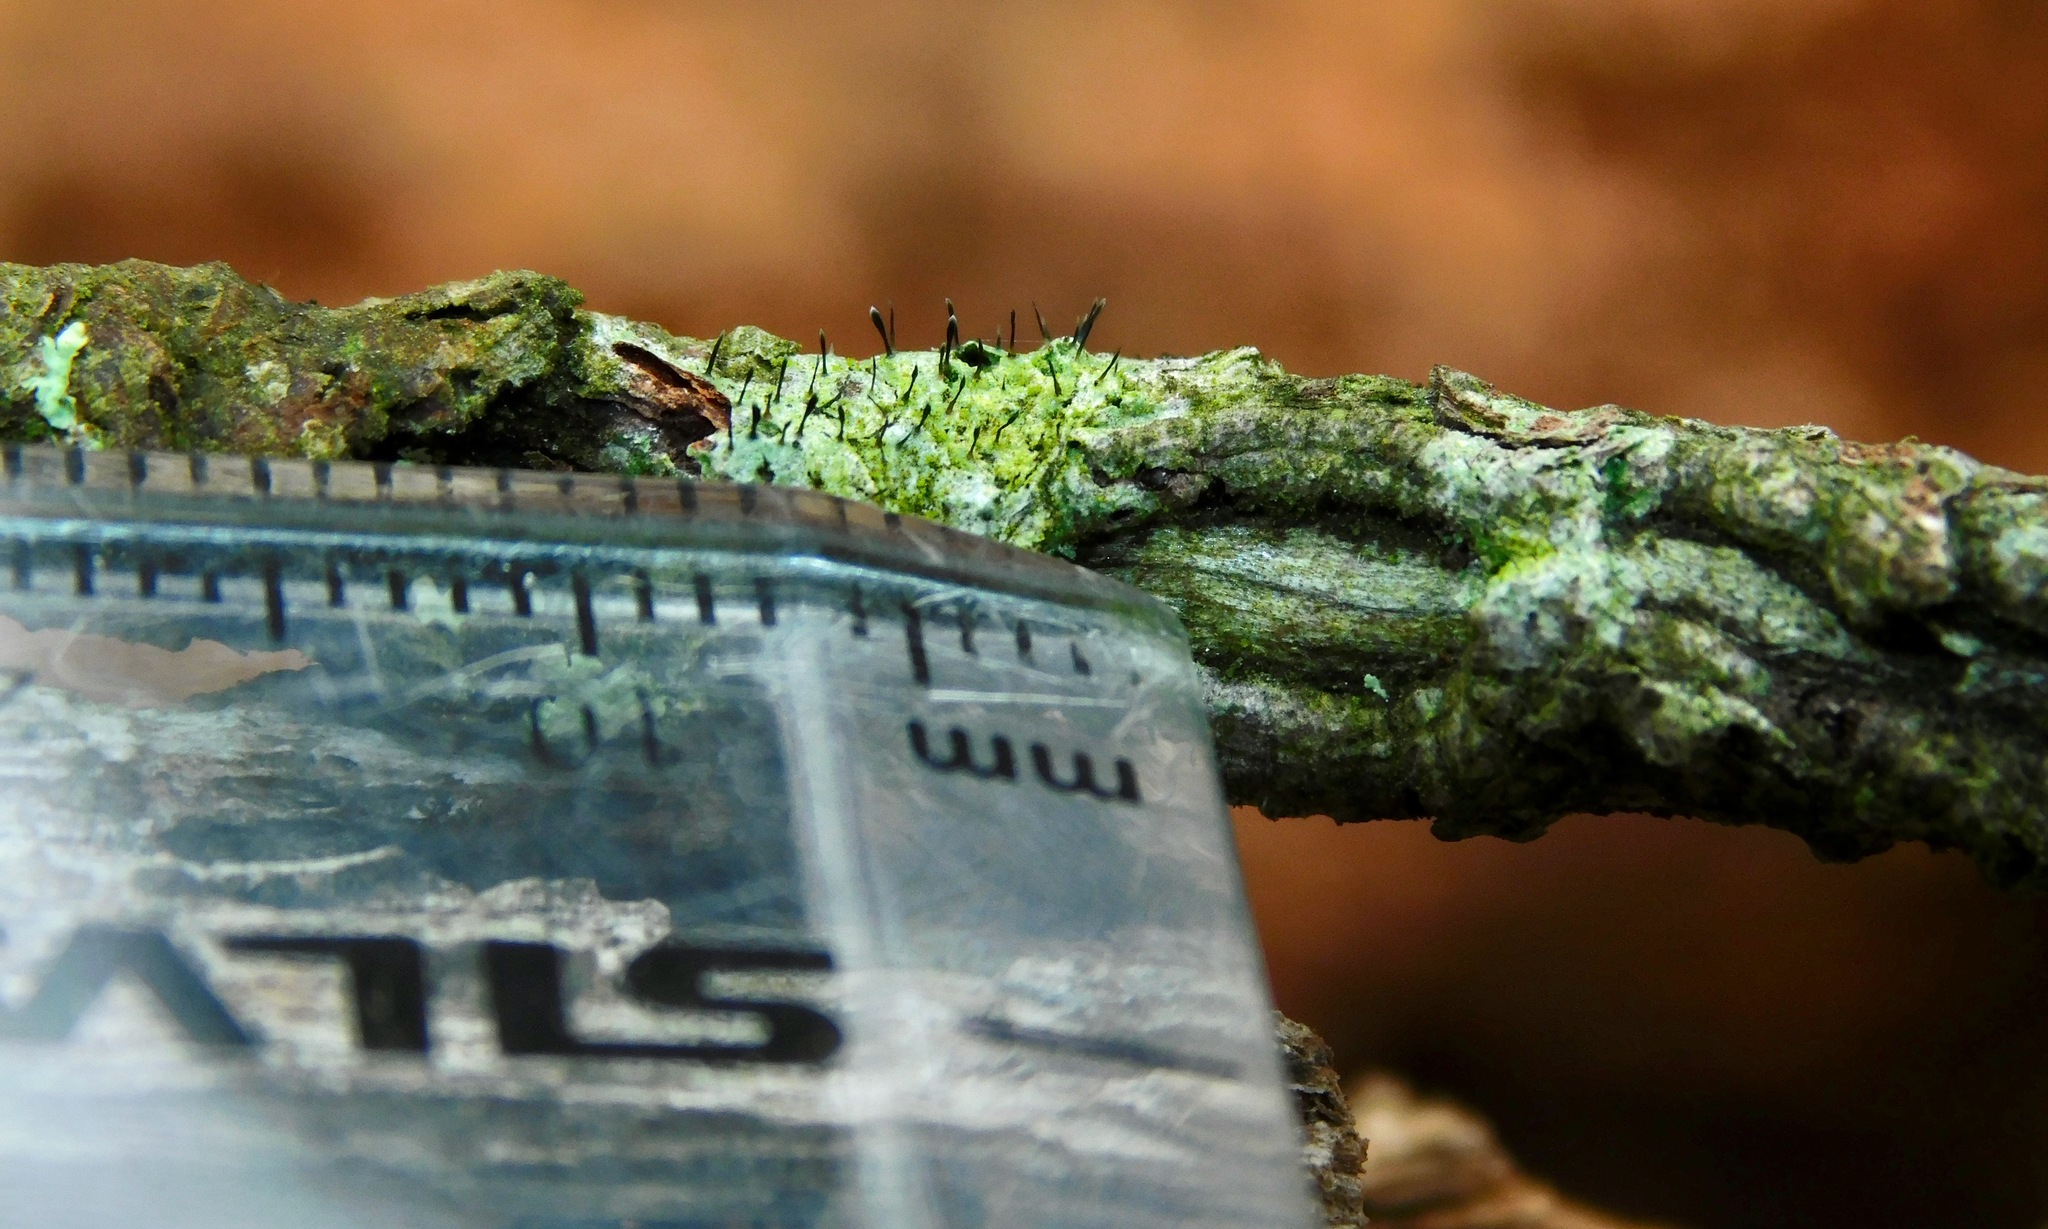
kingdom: Fungi
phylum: Ascomycota
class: Lecanoromycetes
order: Ostropales
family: Gomphillaceae
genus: Gyalideopsis
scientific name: Gyalideopsis buckii
